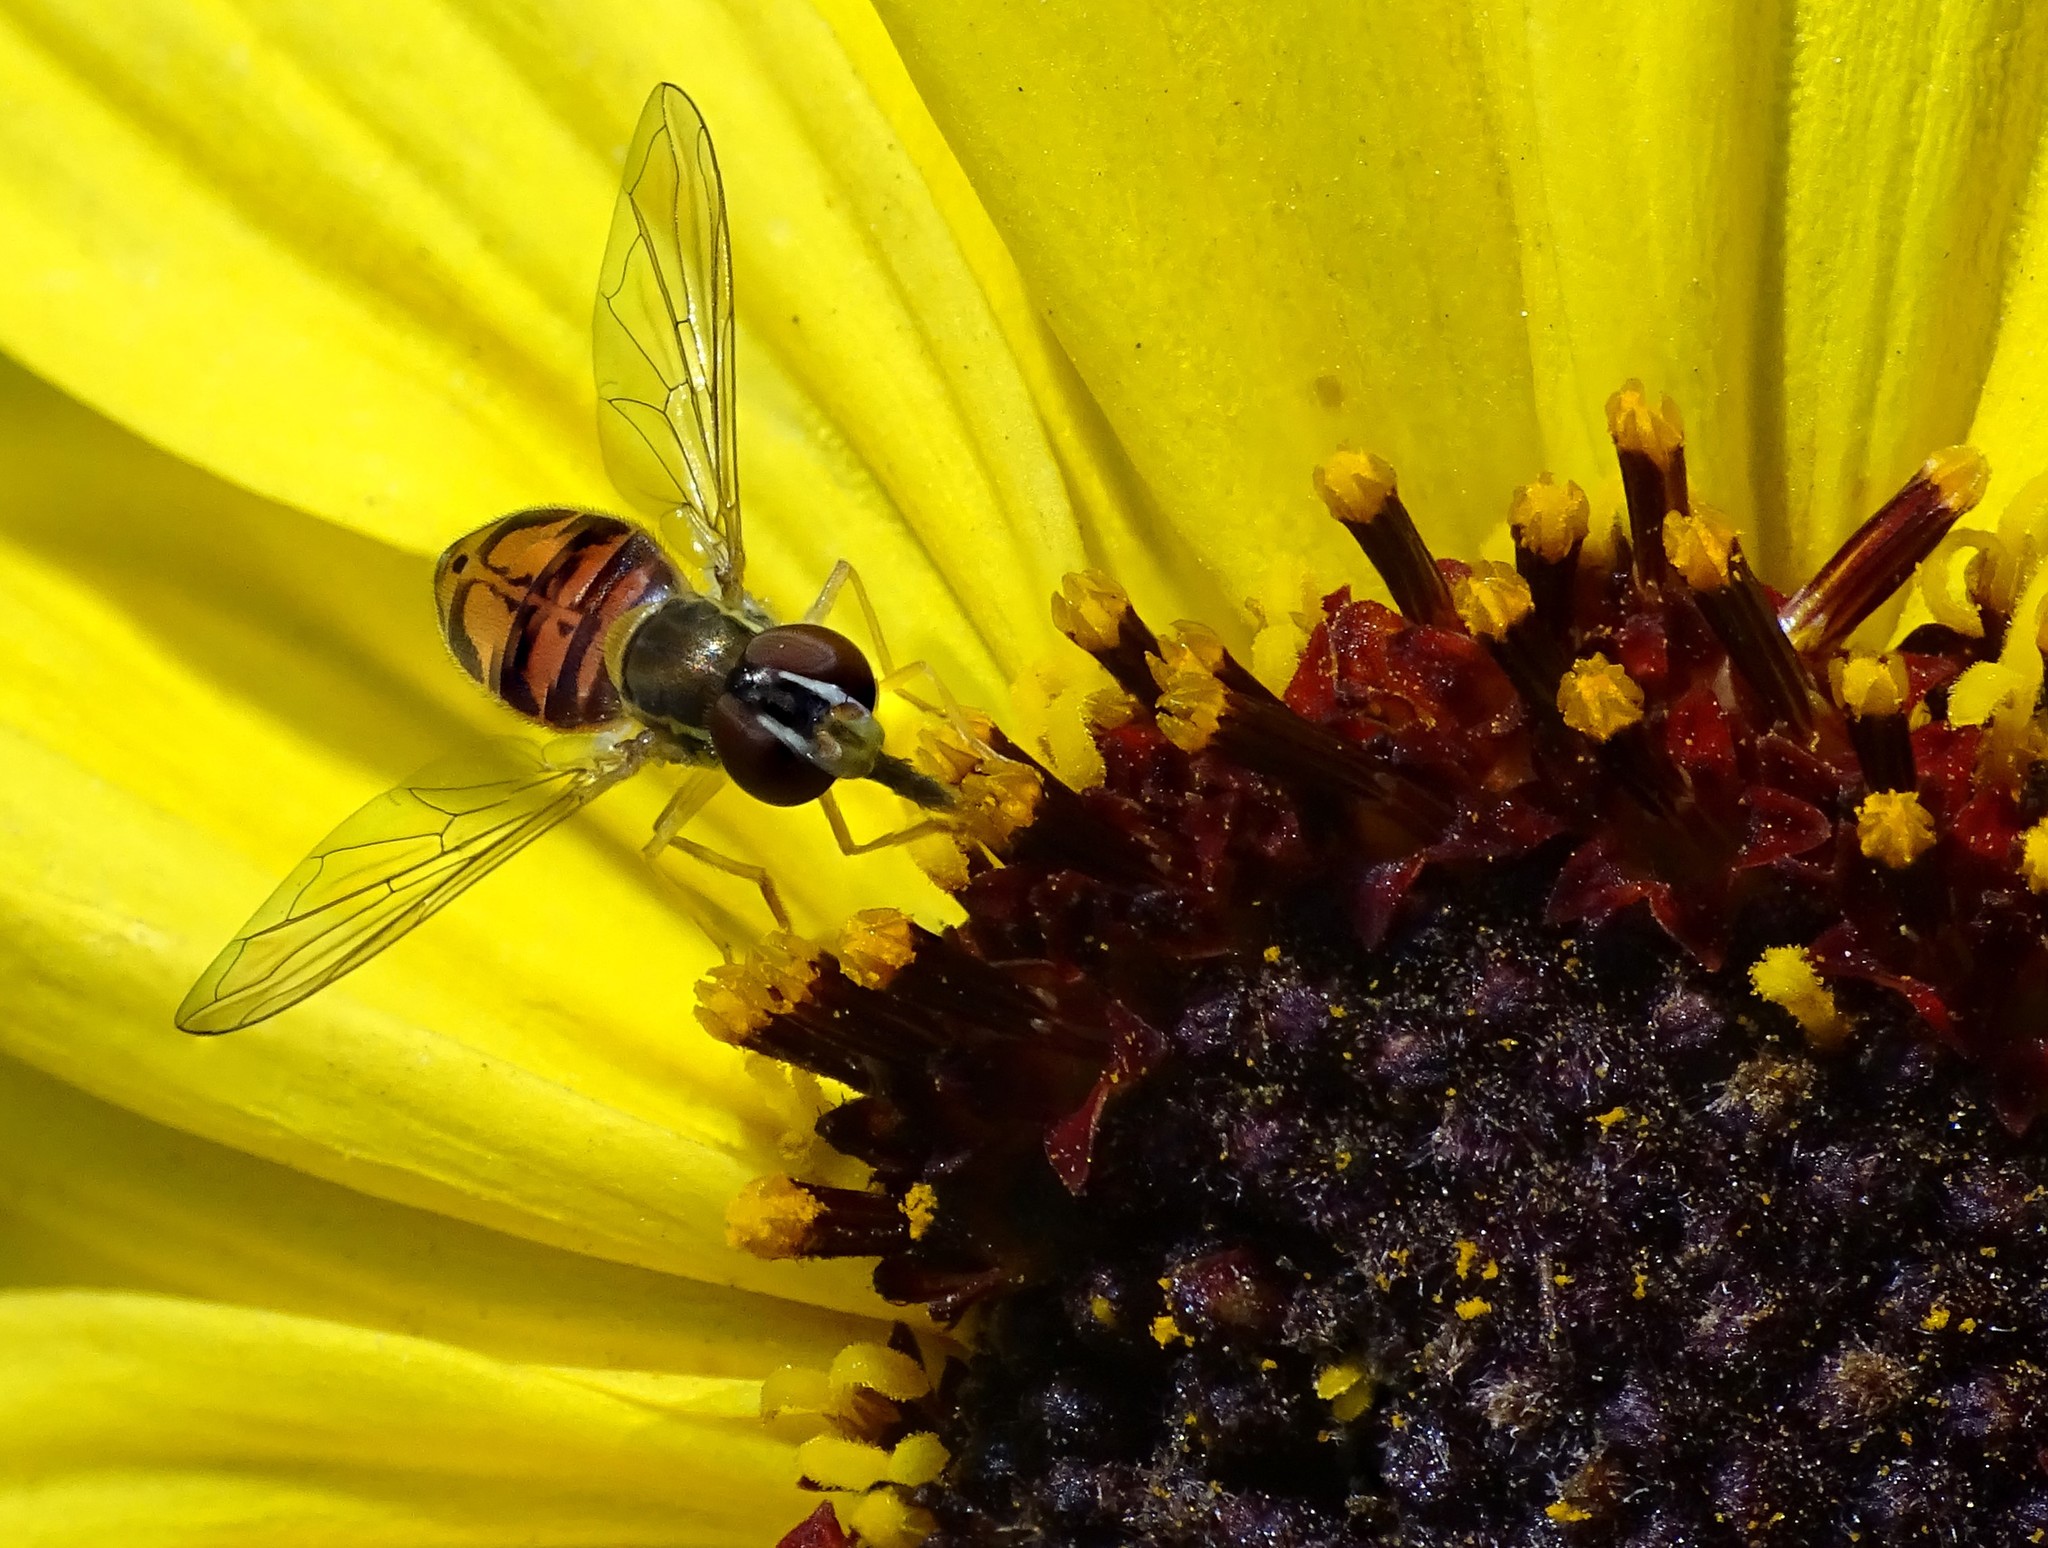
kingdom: Animalia
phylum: Arthropoda
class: Insecta
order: Diptera
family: Syrphidae
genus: Toxomerus
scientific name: Toxomerus marginatus
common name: Syrphid fly
